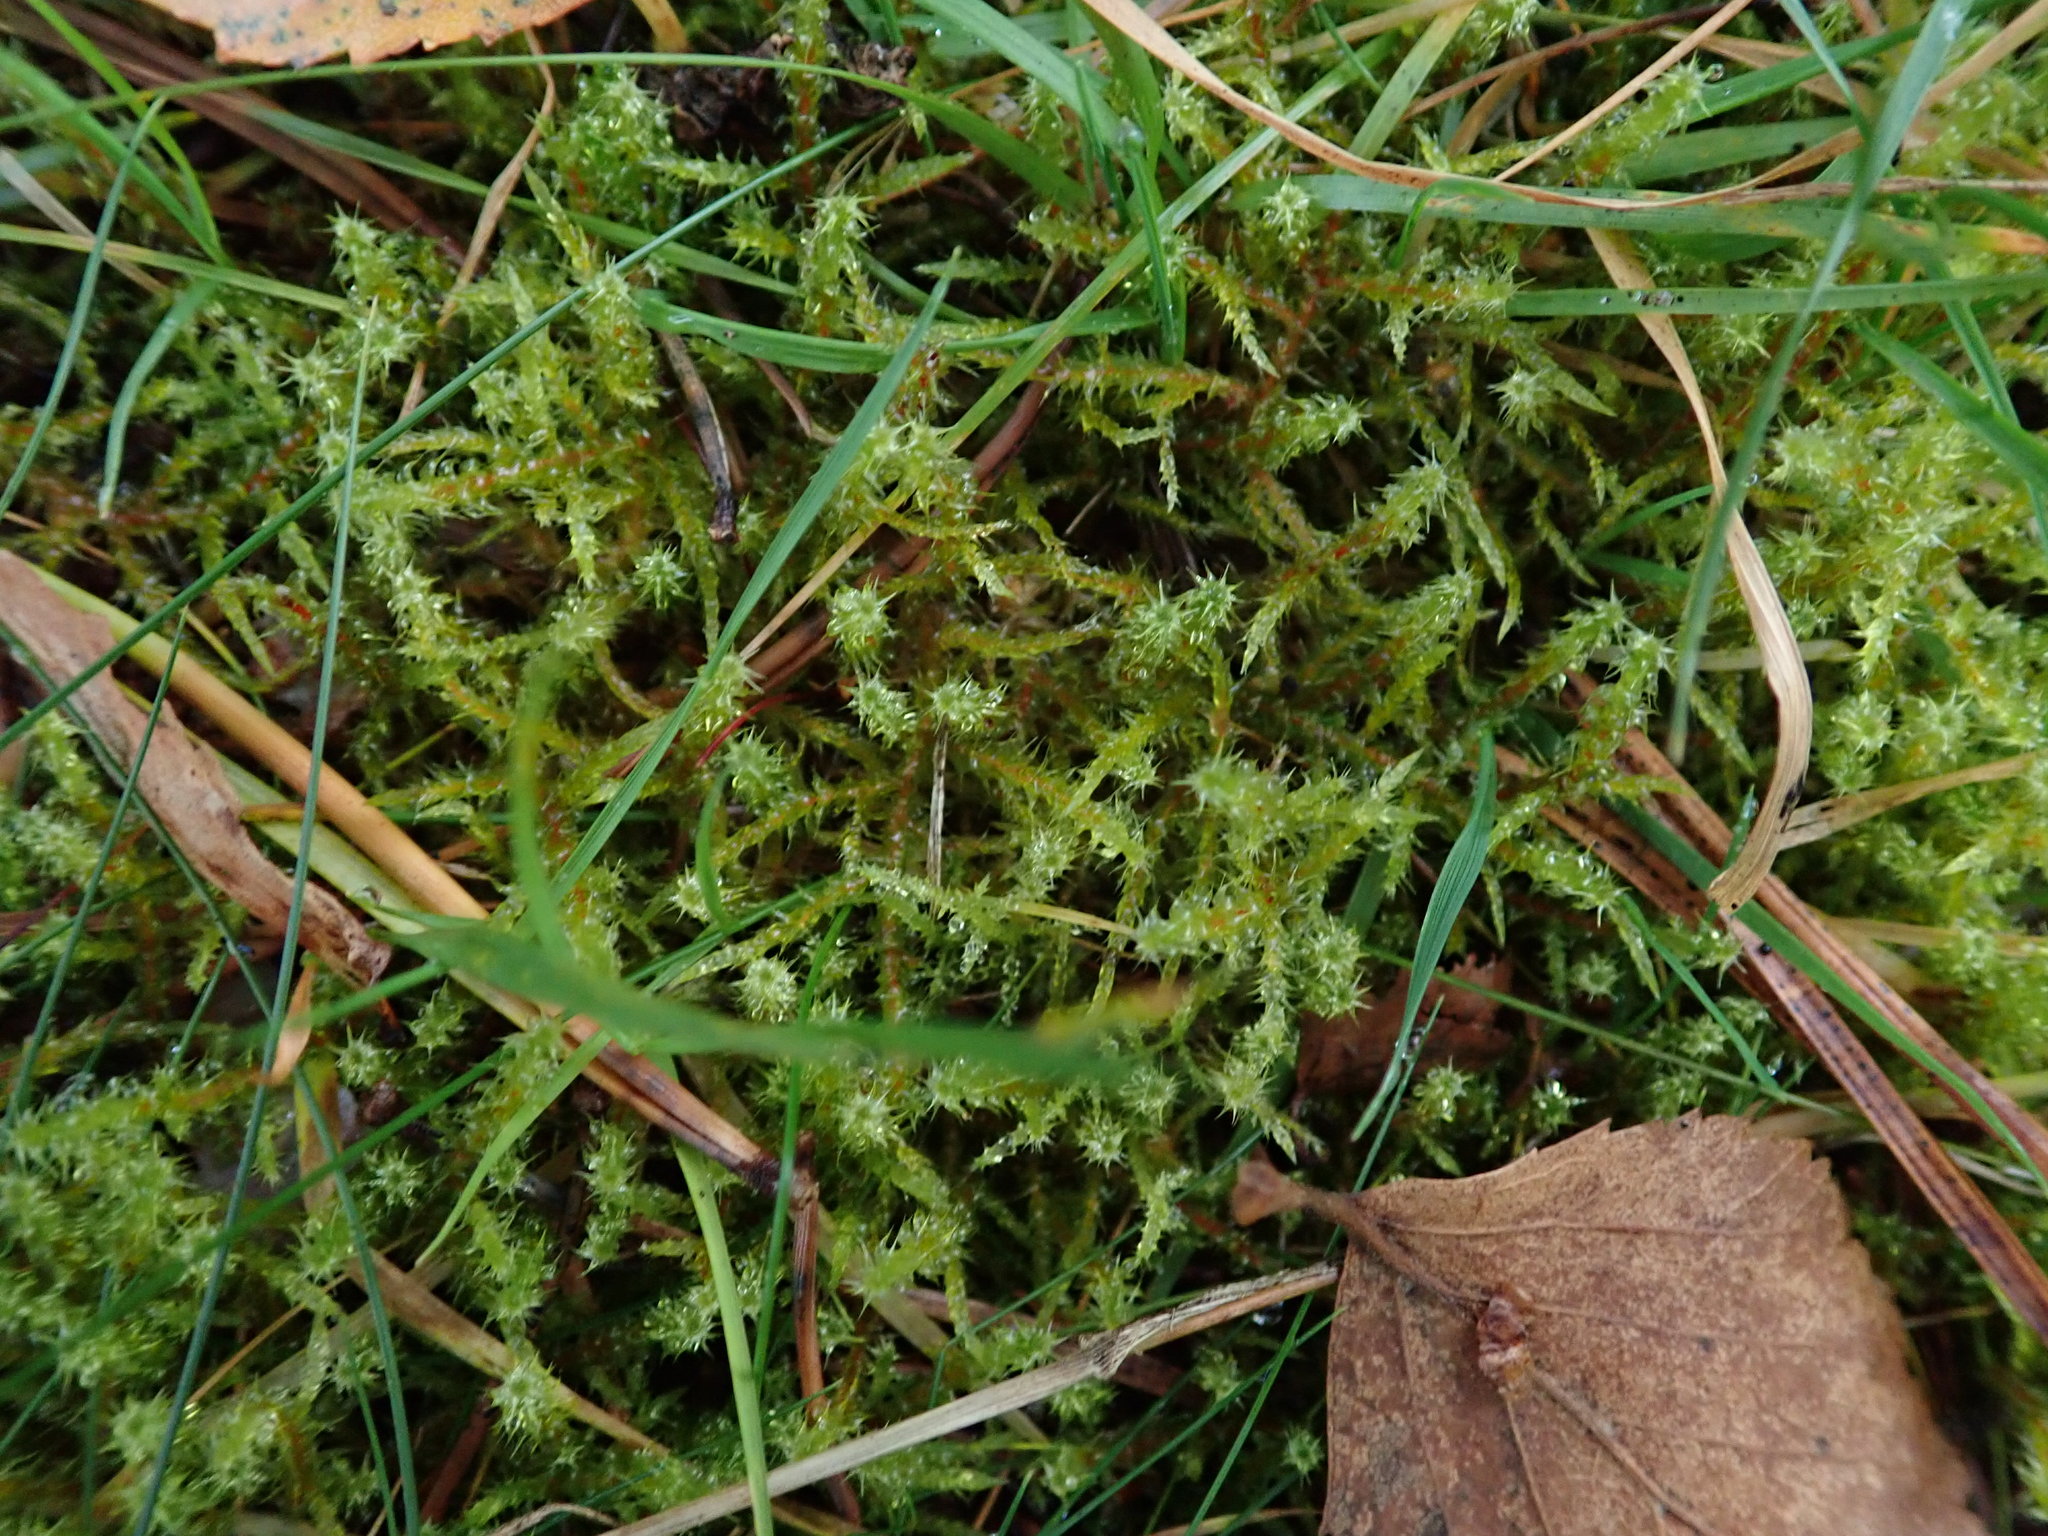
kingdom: Plantae
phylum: Bryophyta
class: Bryopsida
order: Hypnales
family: Hylocomiaceae
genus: Rhytidiadelphus
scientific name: Rhytidiadelphus squarrosus
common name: Springy turf-moss
